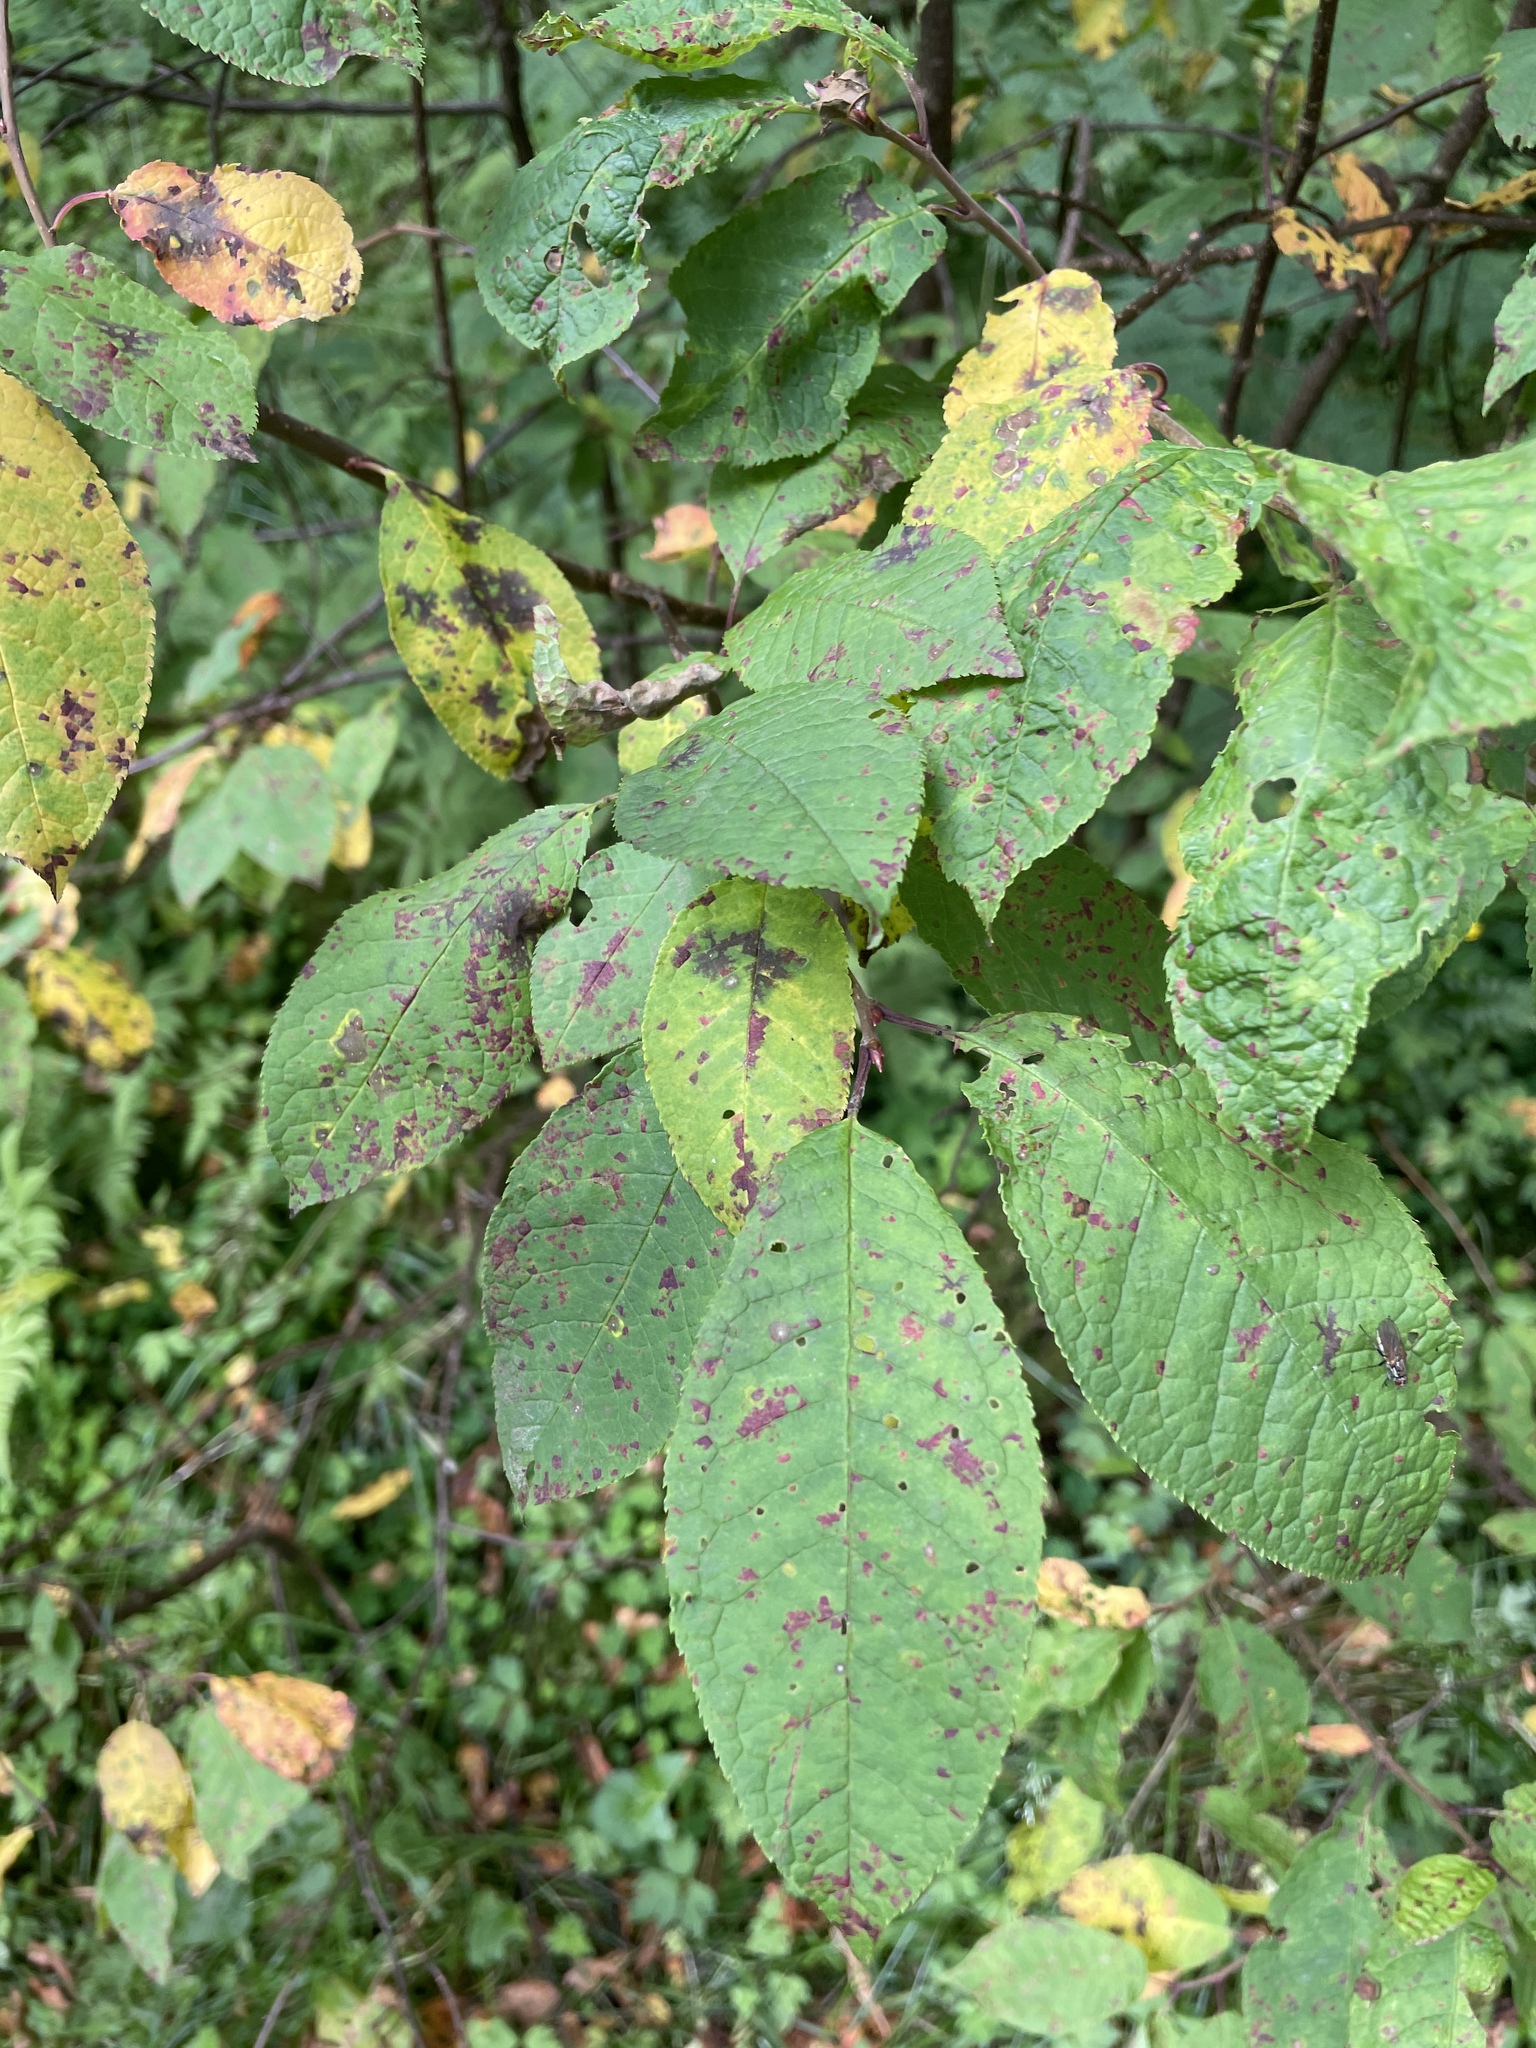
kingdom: Plantae
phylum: Tracheophyta
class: Magnoliopsida
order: Rosales
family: Rosaceae
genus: Prunus
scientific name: Prunus padus
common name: Bird cherry
